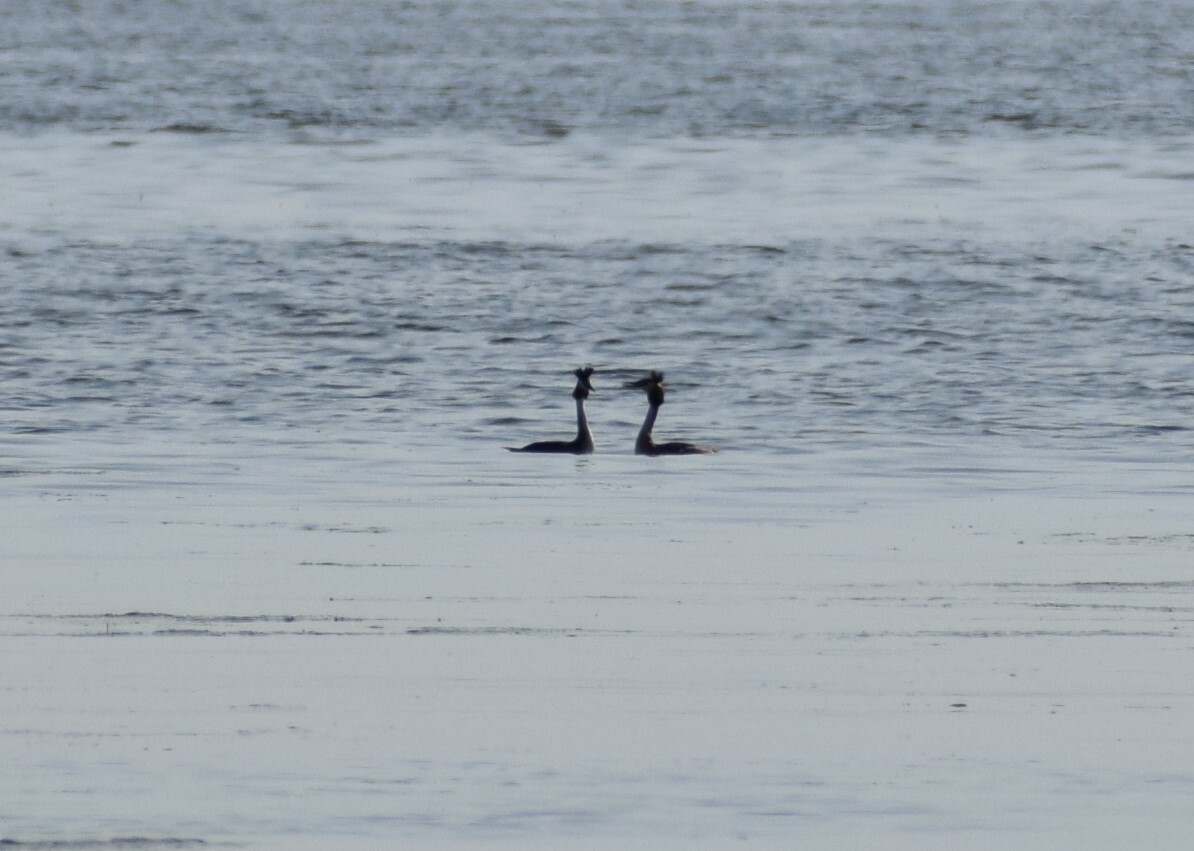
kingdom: Animalia
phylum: Chordata
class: Aves
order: Podicipediformes
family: Podicipedidae
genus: Podiceps
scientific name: Podiceps cristatus
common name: Great crested grebe
